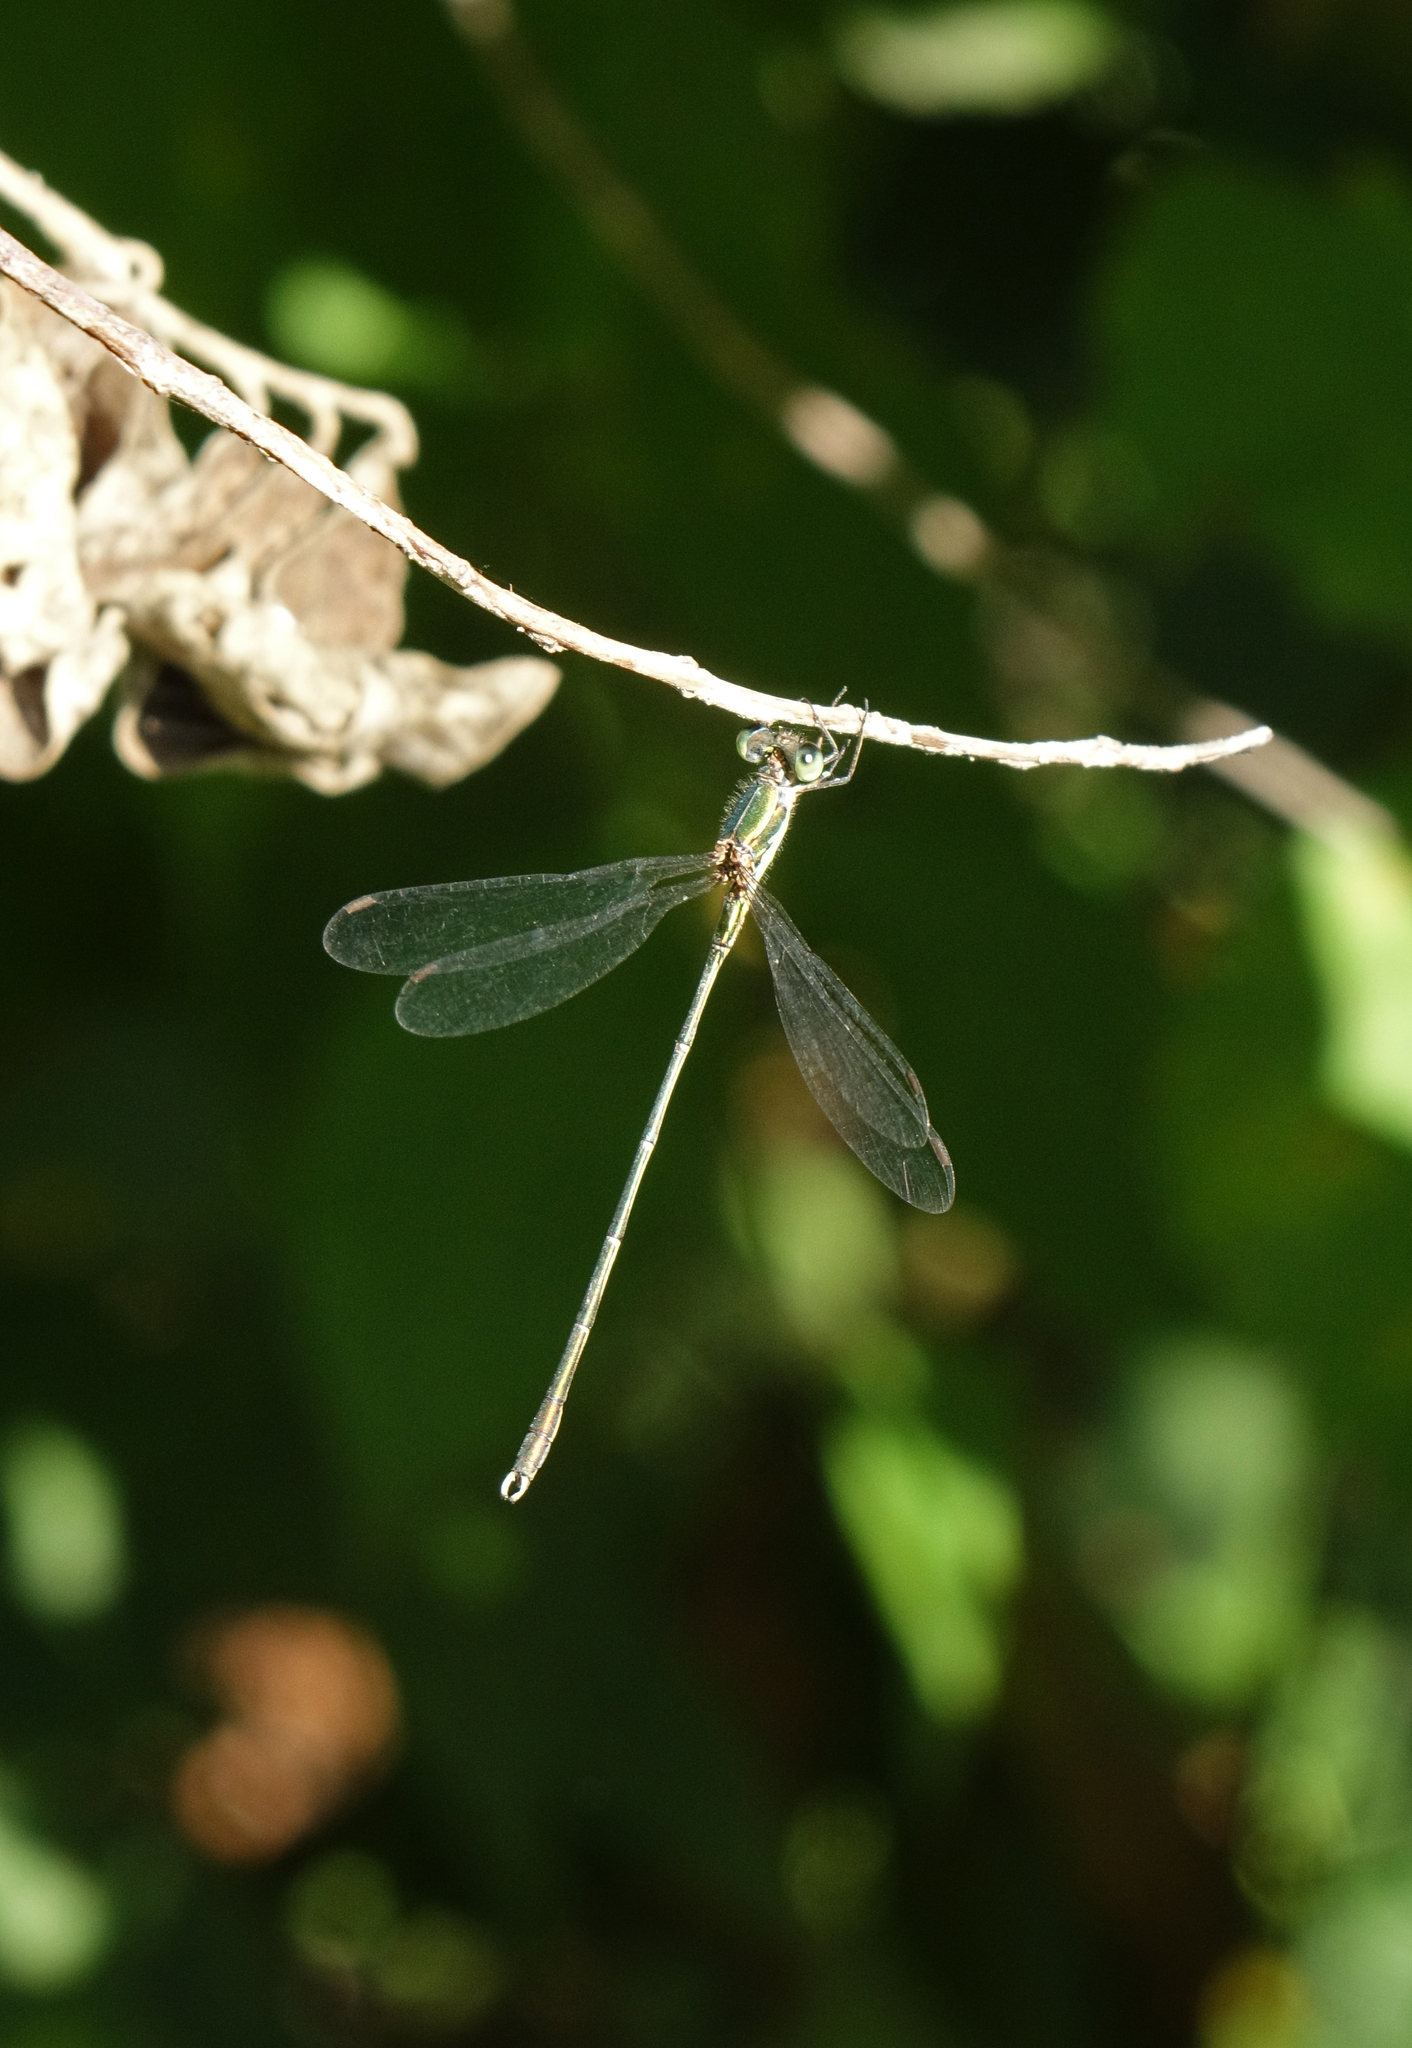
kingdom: Animalia
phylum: Arthropoda
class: Insecta
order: Odonata
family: Lestidae
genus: Chalcolestes
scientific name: Chalcolestes parvidens
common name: Eastern willow spreadwing
